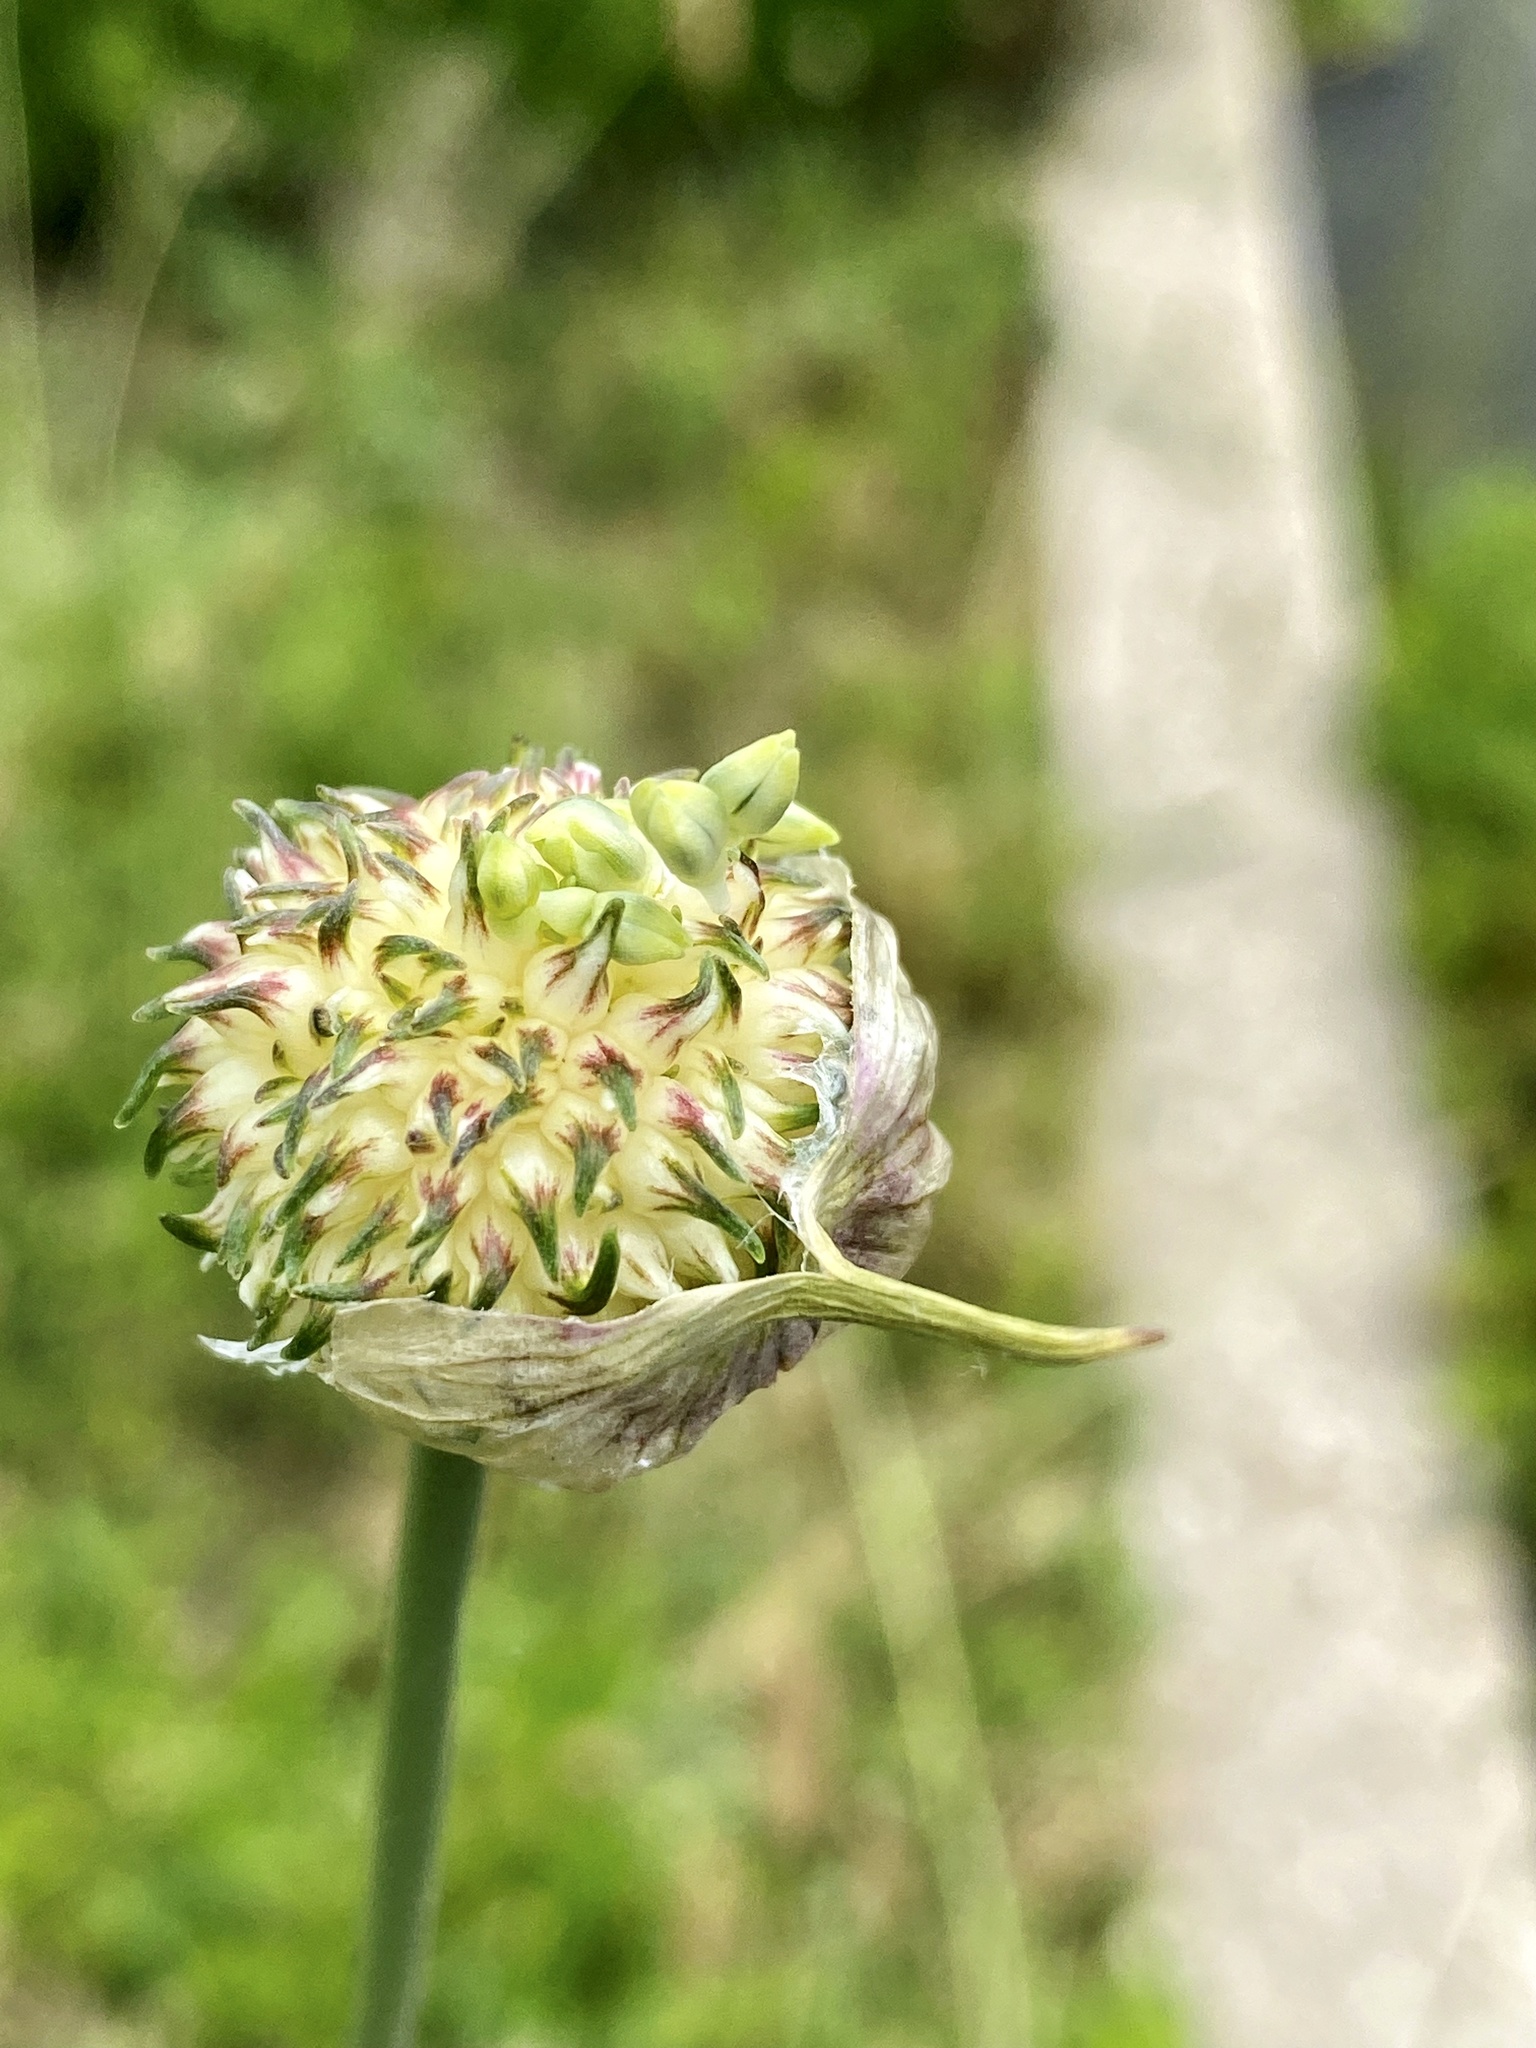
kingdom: Plantae
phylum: Tracheophyta
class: Liliopsida
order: Asparagales
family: Amaryllidaceae
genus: Allium
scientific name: Allium vineale
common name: Crow garlic
